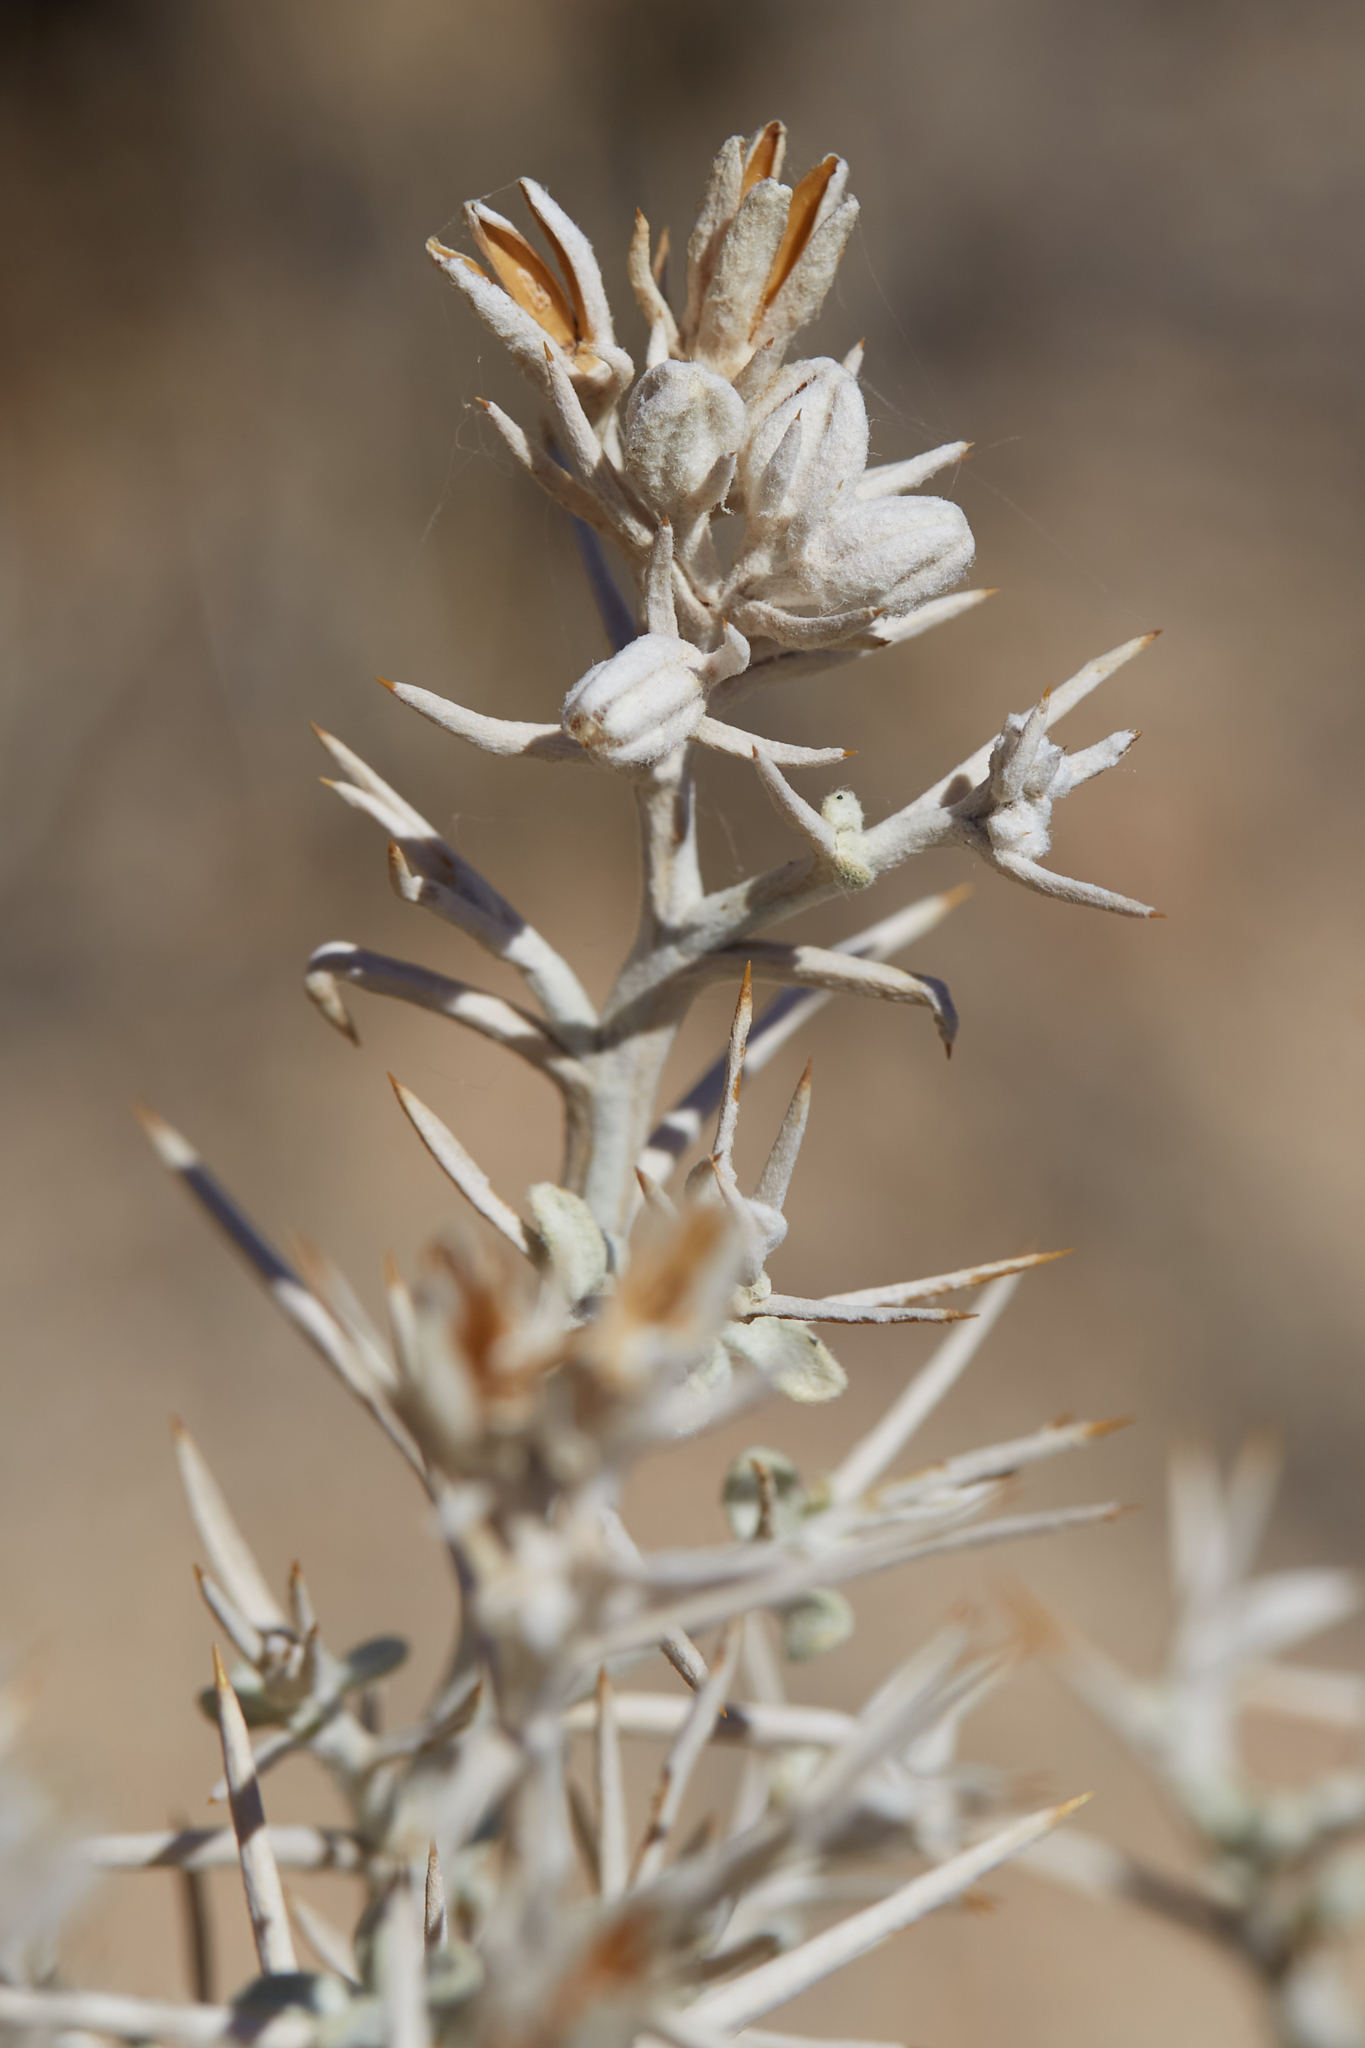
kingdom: Plantae
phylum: Tracheophyta
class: Magnoliopsida
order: Asterales
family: Asteraceae
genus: Tetradymia
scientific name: Tetradymia stenolepis
